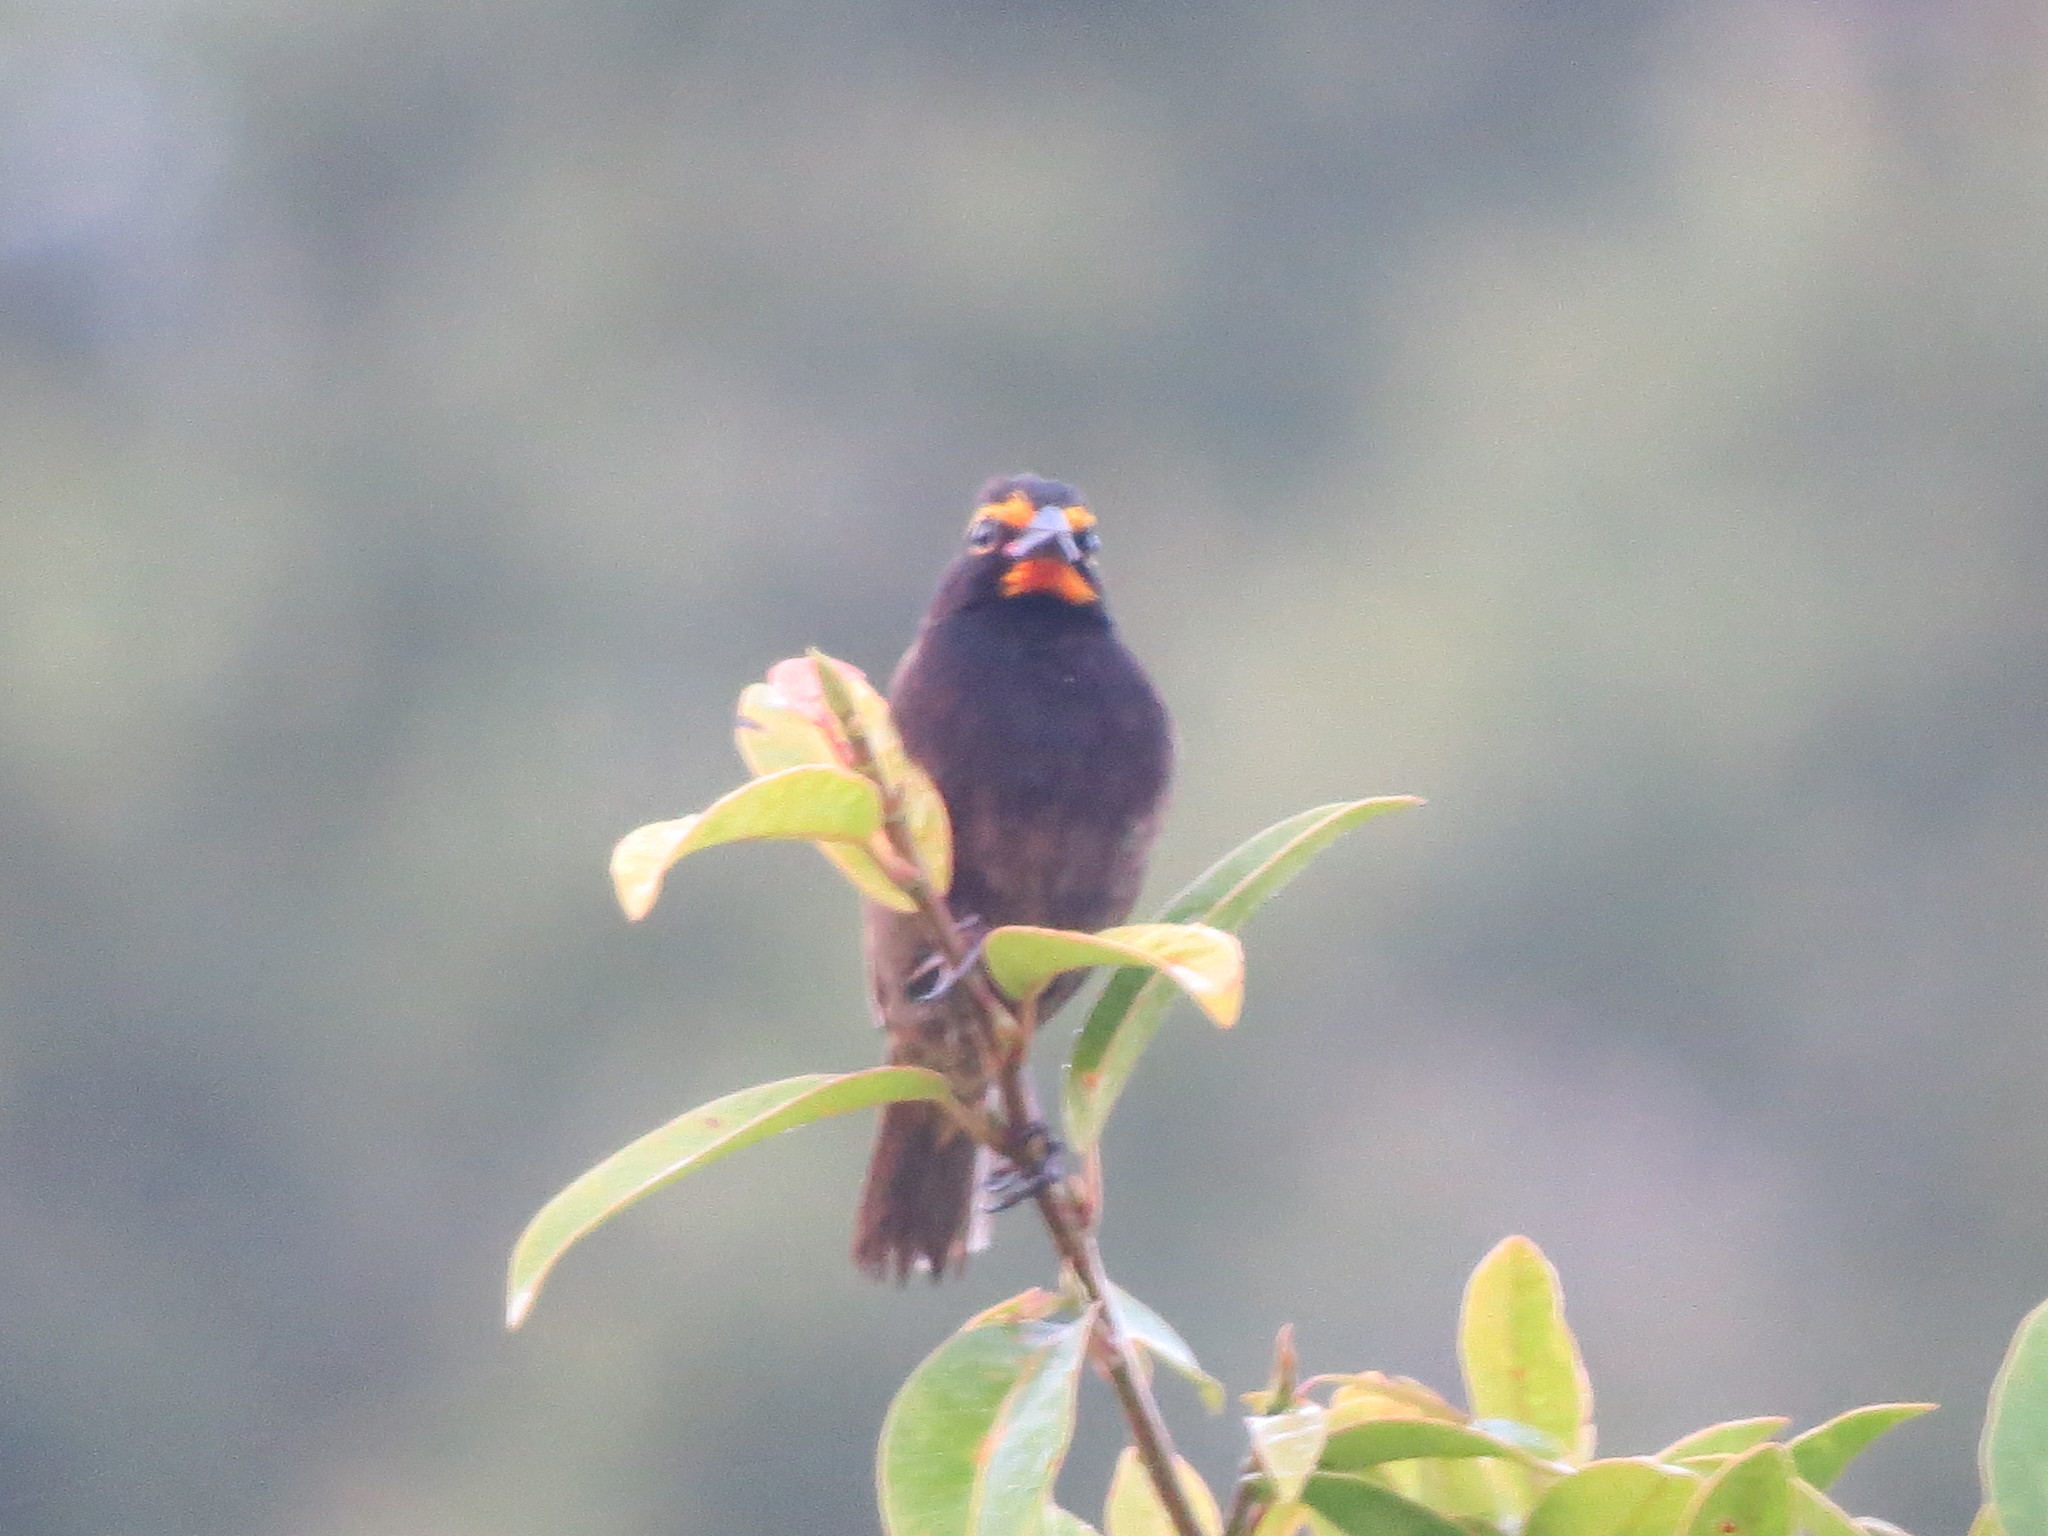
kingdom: Animalia
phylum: Chordata
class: Aves
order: Passeriformes
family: Thraupidae
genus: Tiaris
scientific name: Tiaris olivaceus
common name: Yellow-faced grassquit
